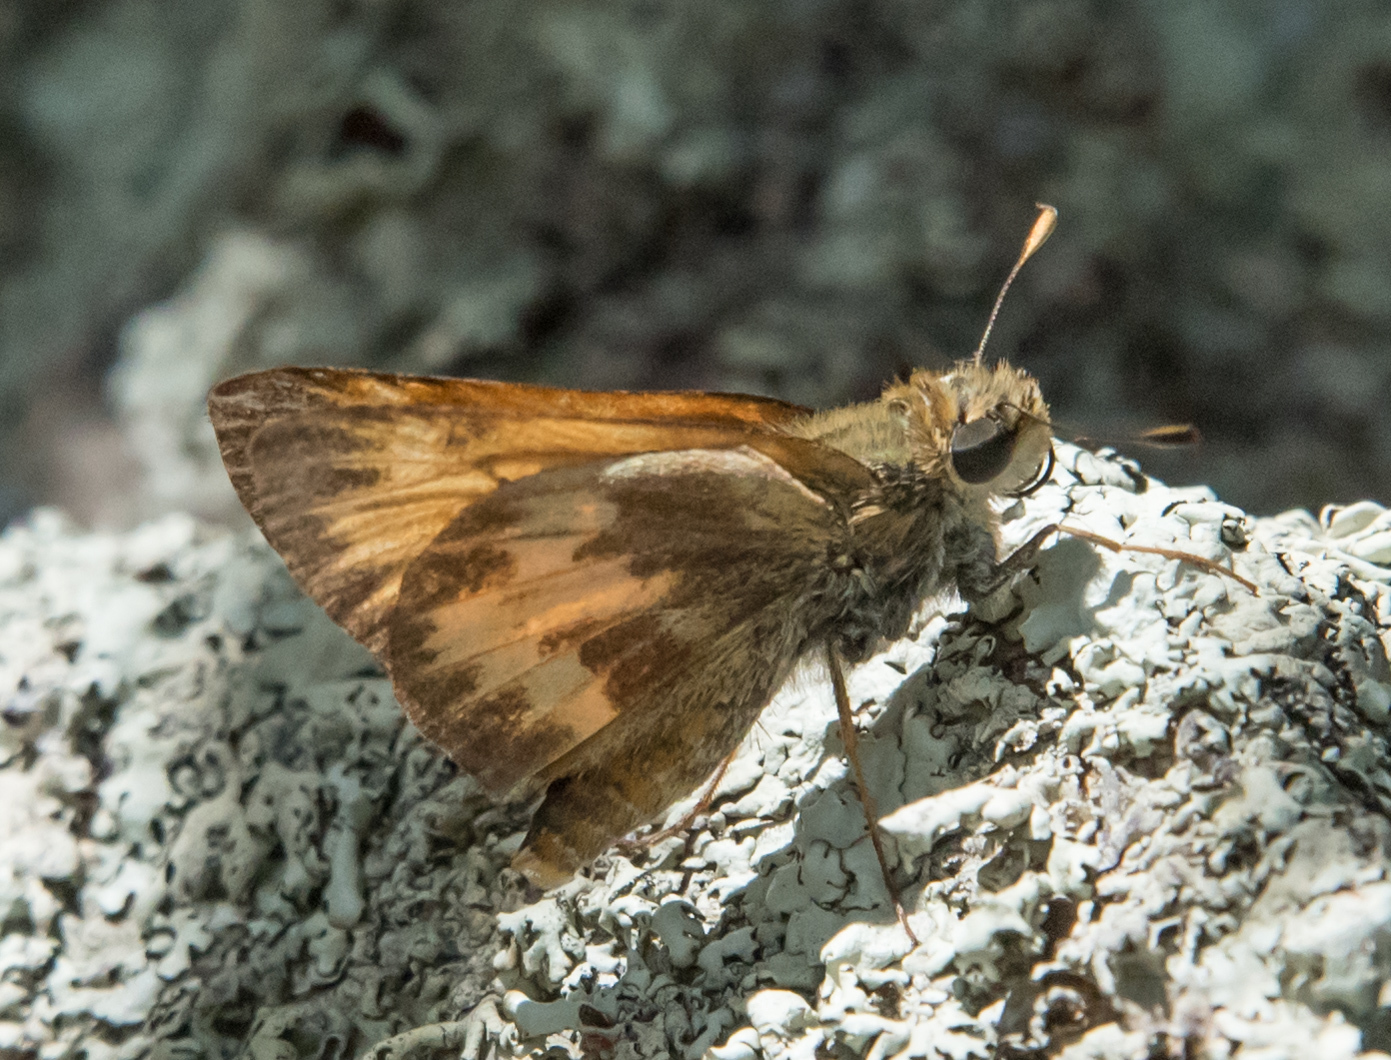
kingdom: Animalia
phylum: Arthropoda
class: Insecta
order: Lepidoptera
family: Hesperiidae
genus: Lon
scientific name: Lon taxiles
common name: Taxiles skipper
